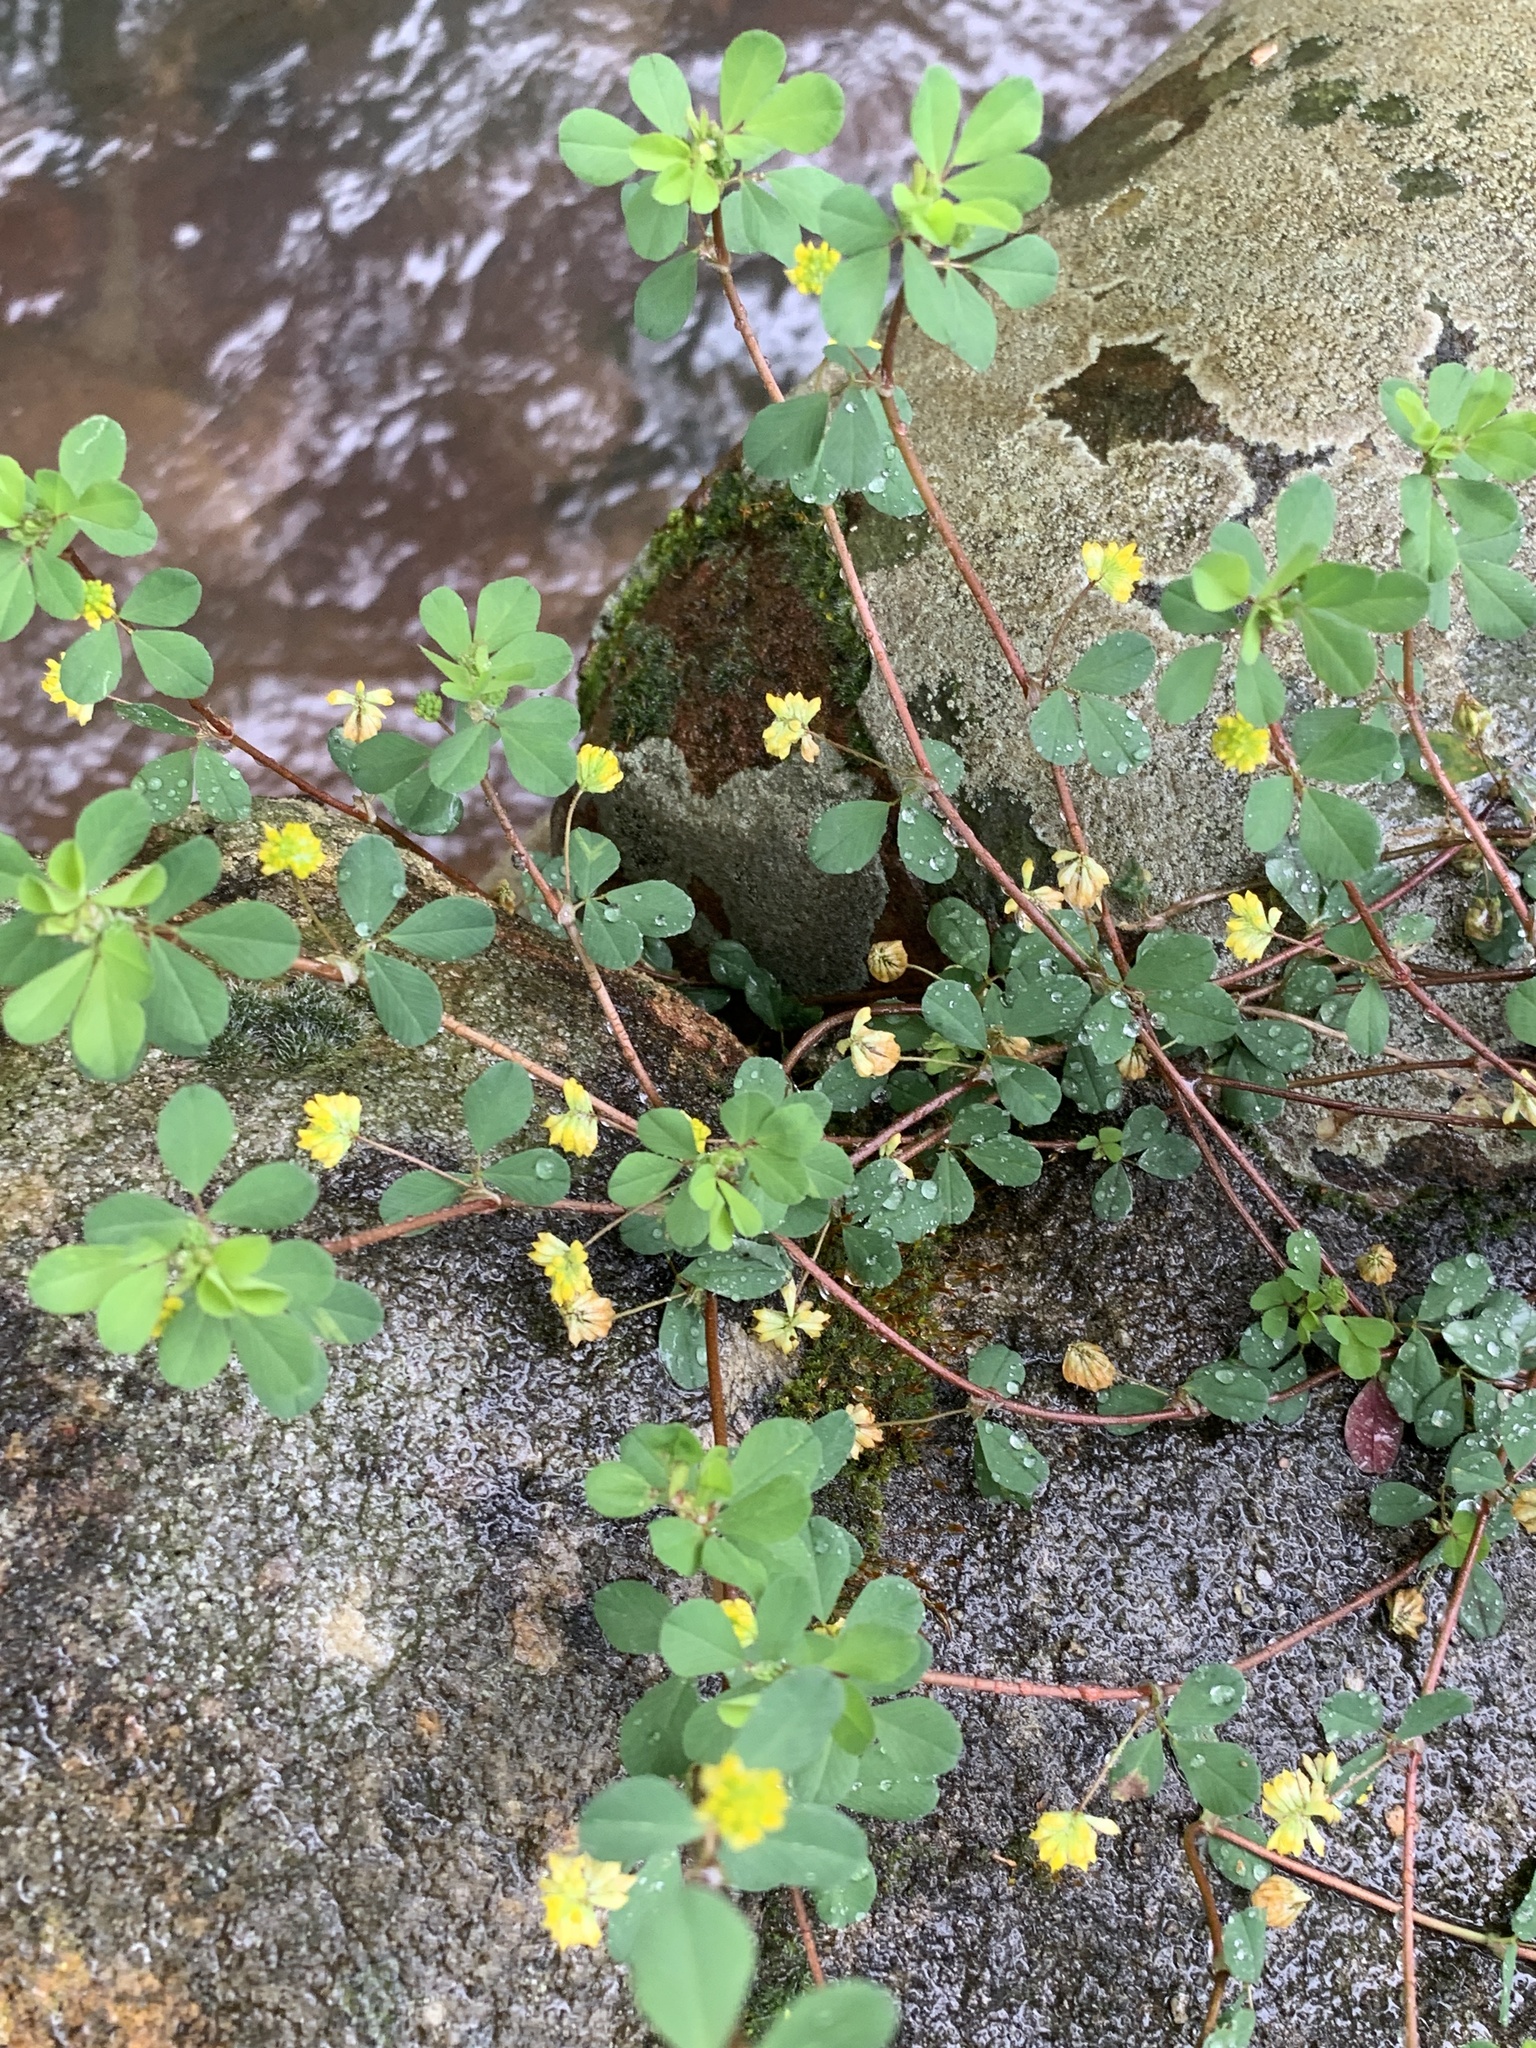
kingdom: Plantae
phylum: Tracheophyta
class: Magnoliopsida
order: Fabales
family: Fabaceae
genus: Trifolium
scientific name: Trifolium dubium
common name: Suckling clover
